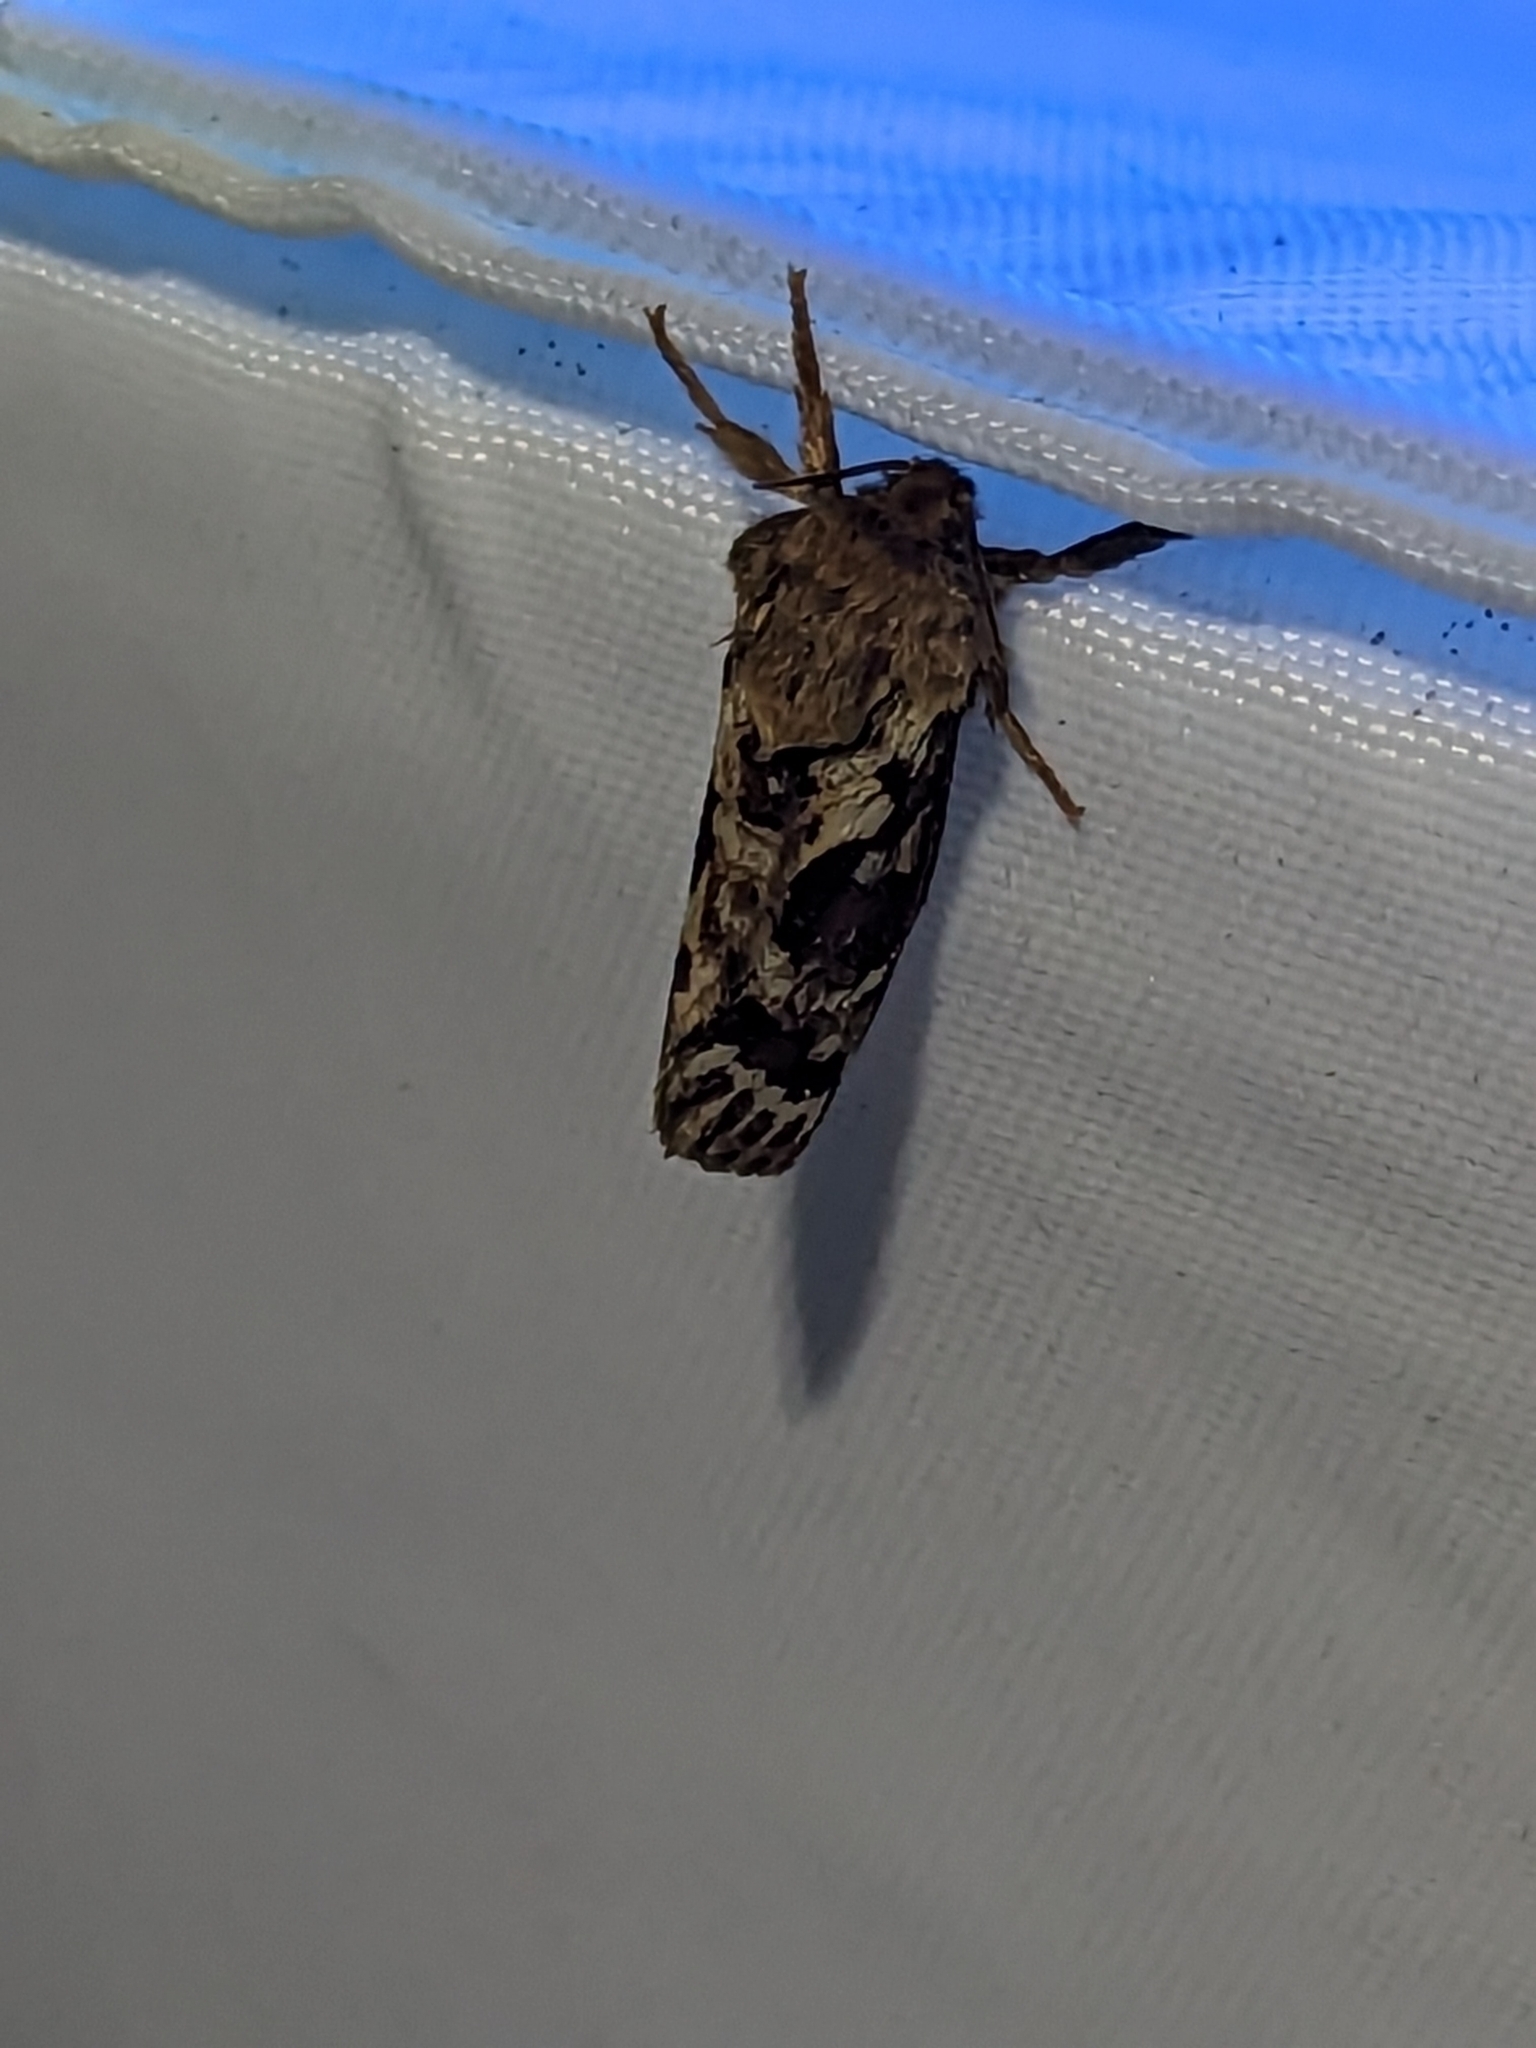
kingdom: Animalia
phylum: Arthropoda
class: Insecta
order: Lepidoptera
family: Hepialidae
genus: Korscheltellus
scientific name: Korscheltellus fusconebulosus
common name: Map-winged swift
